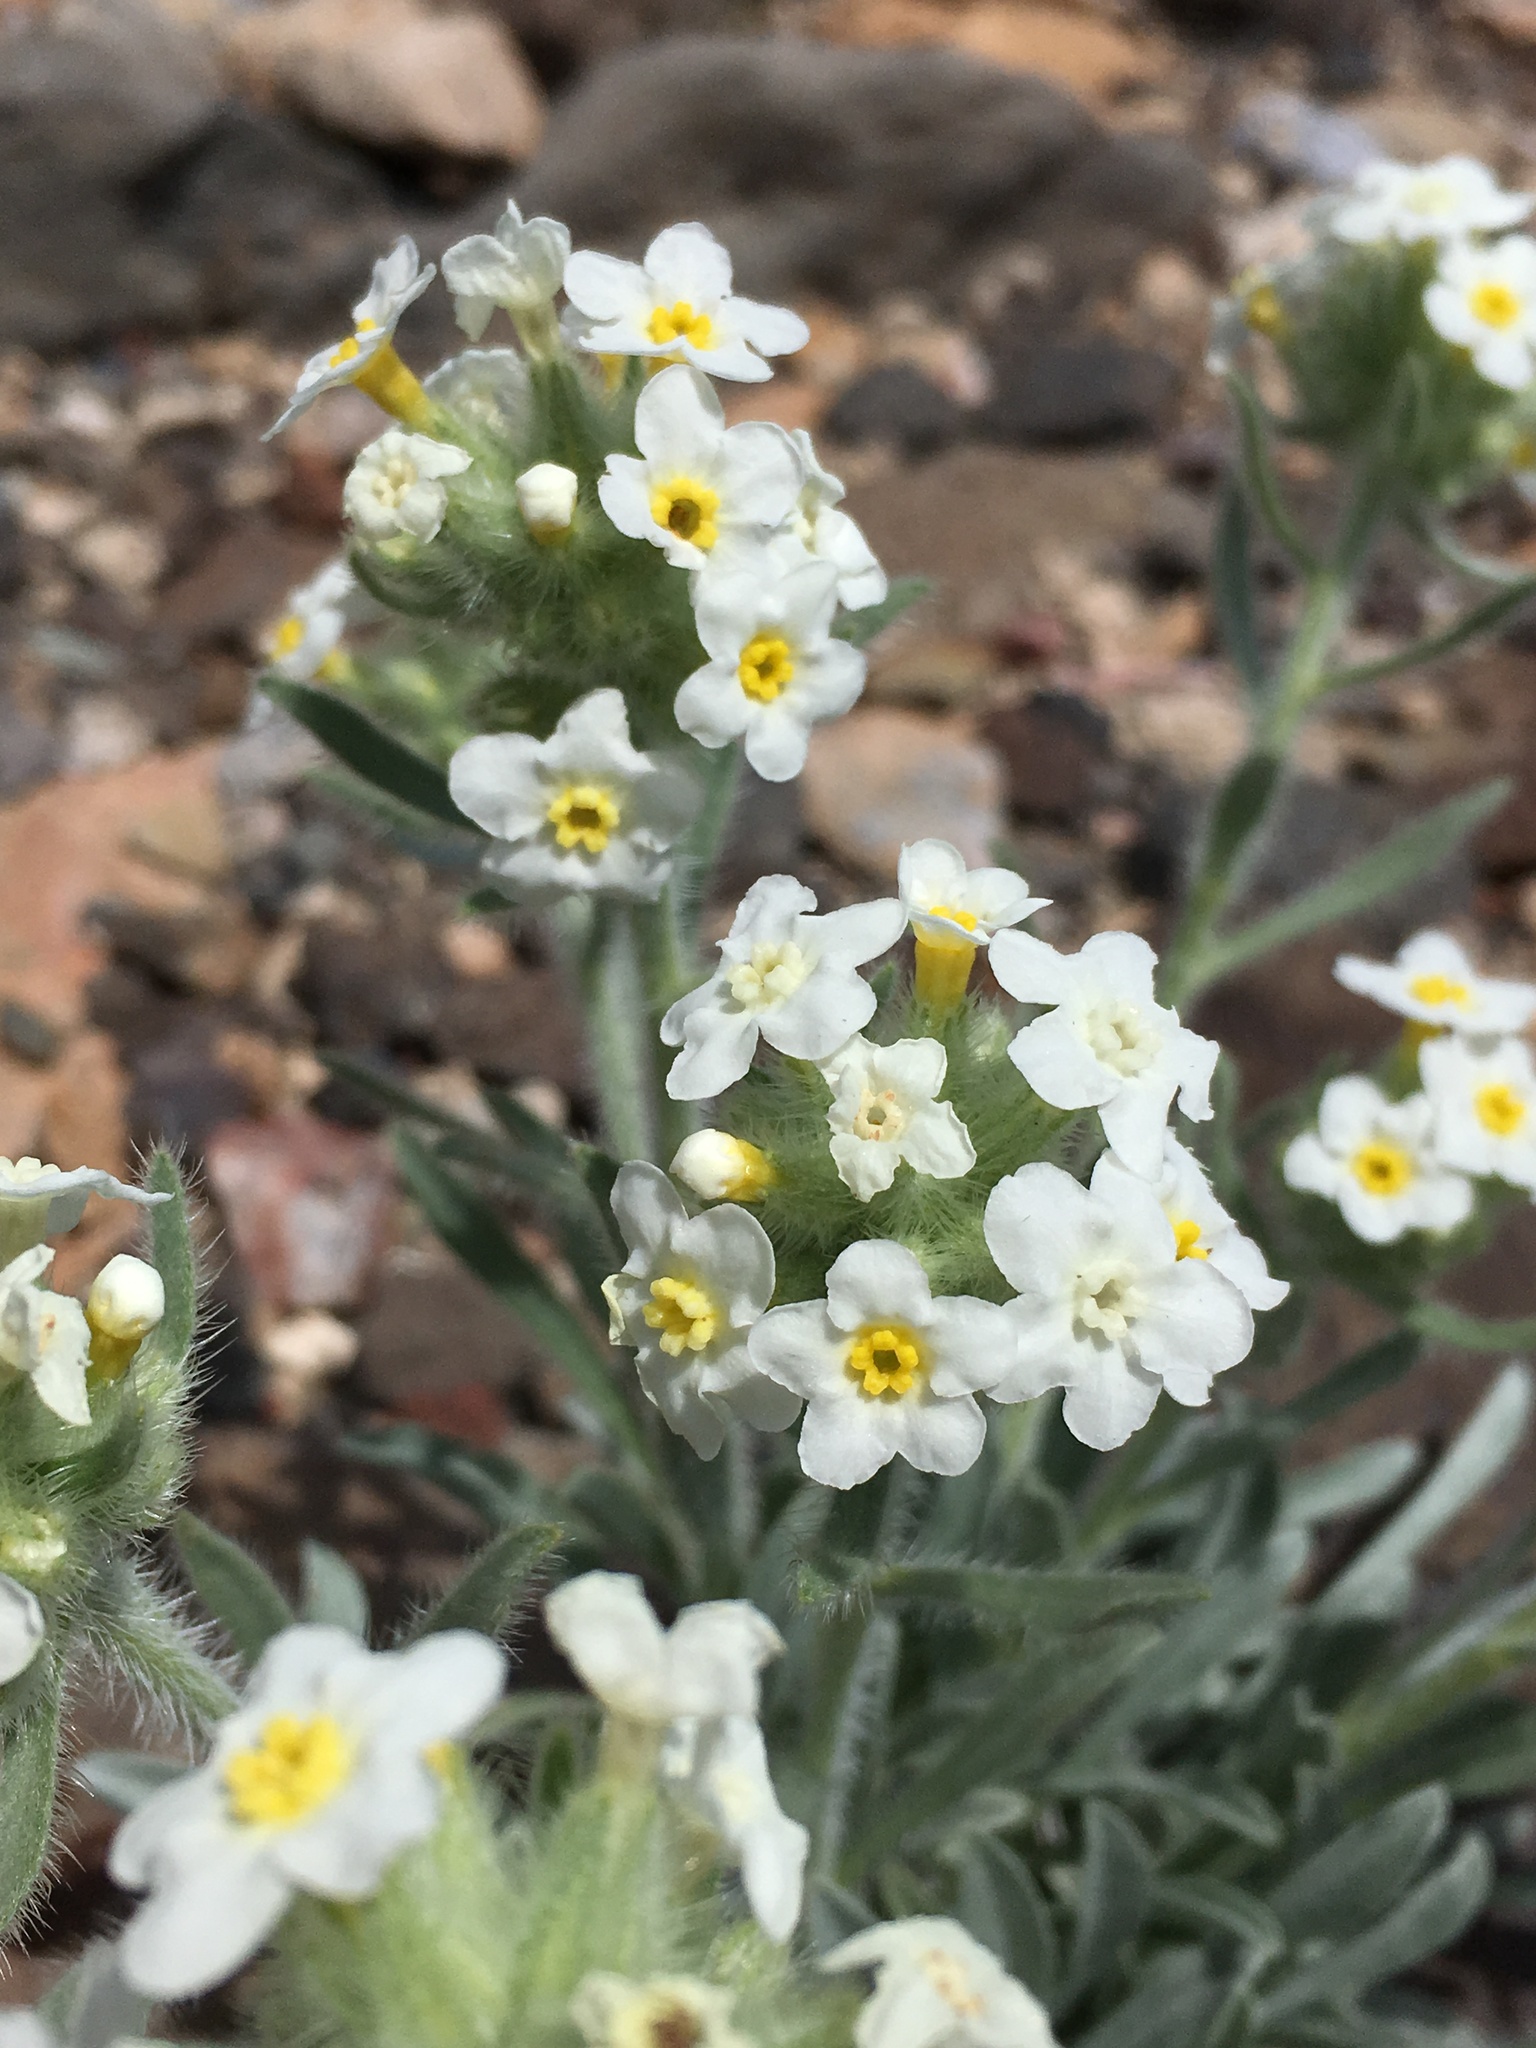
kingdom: Plantae
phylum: Tracheophyta
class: Magnoliopsida
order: Boraginales
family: Boraginaceae
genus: Oreocarya
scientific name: Oreocarya flavoculata
